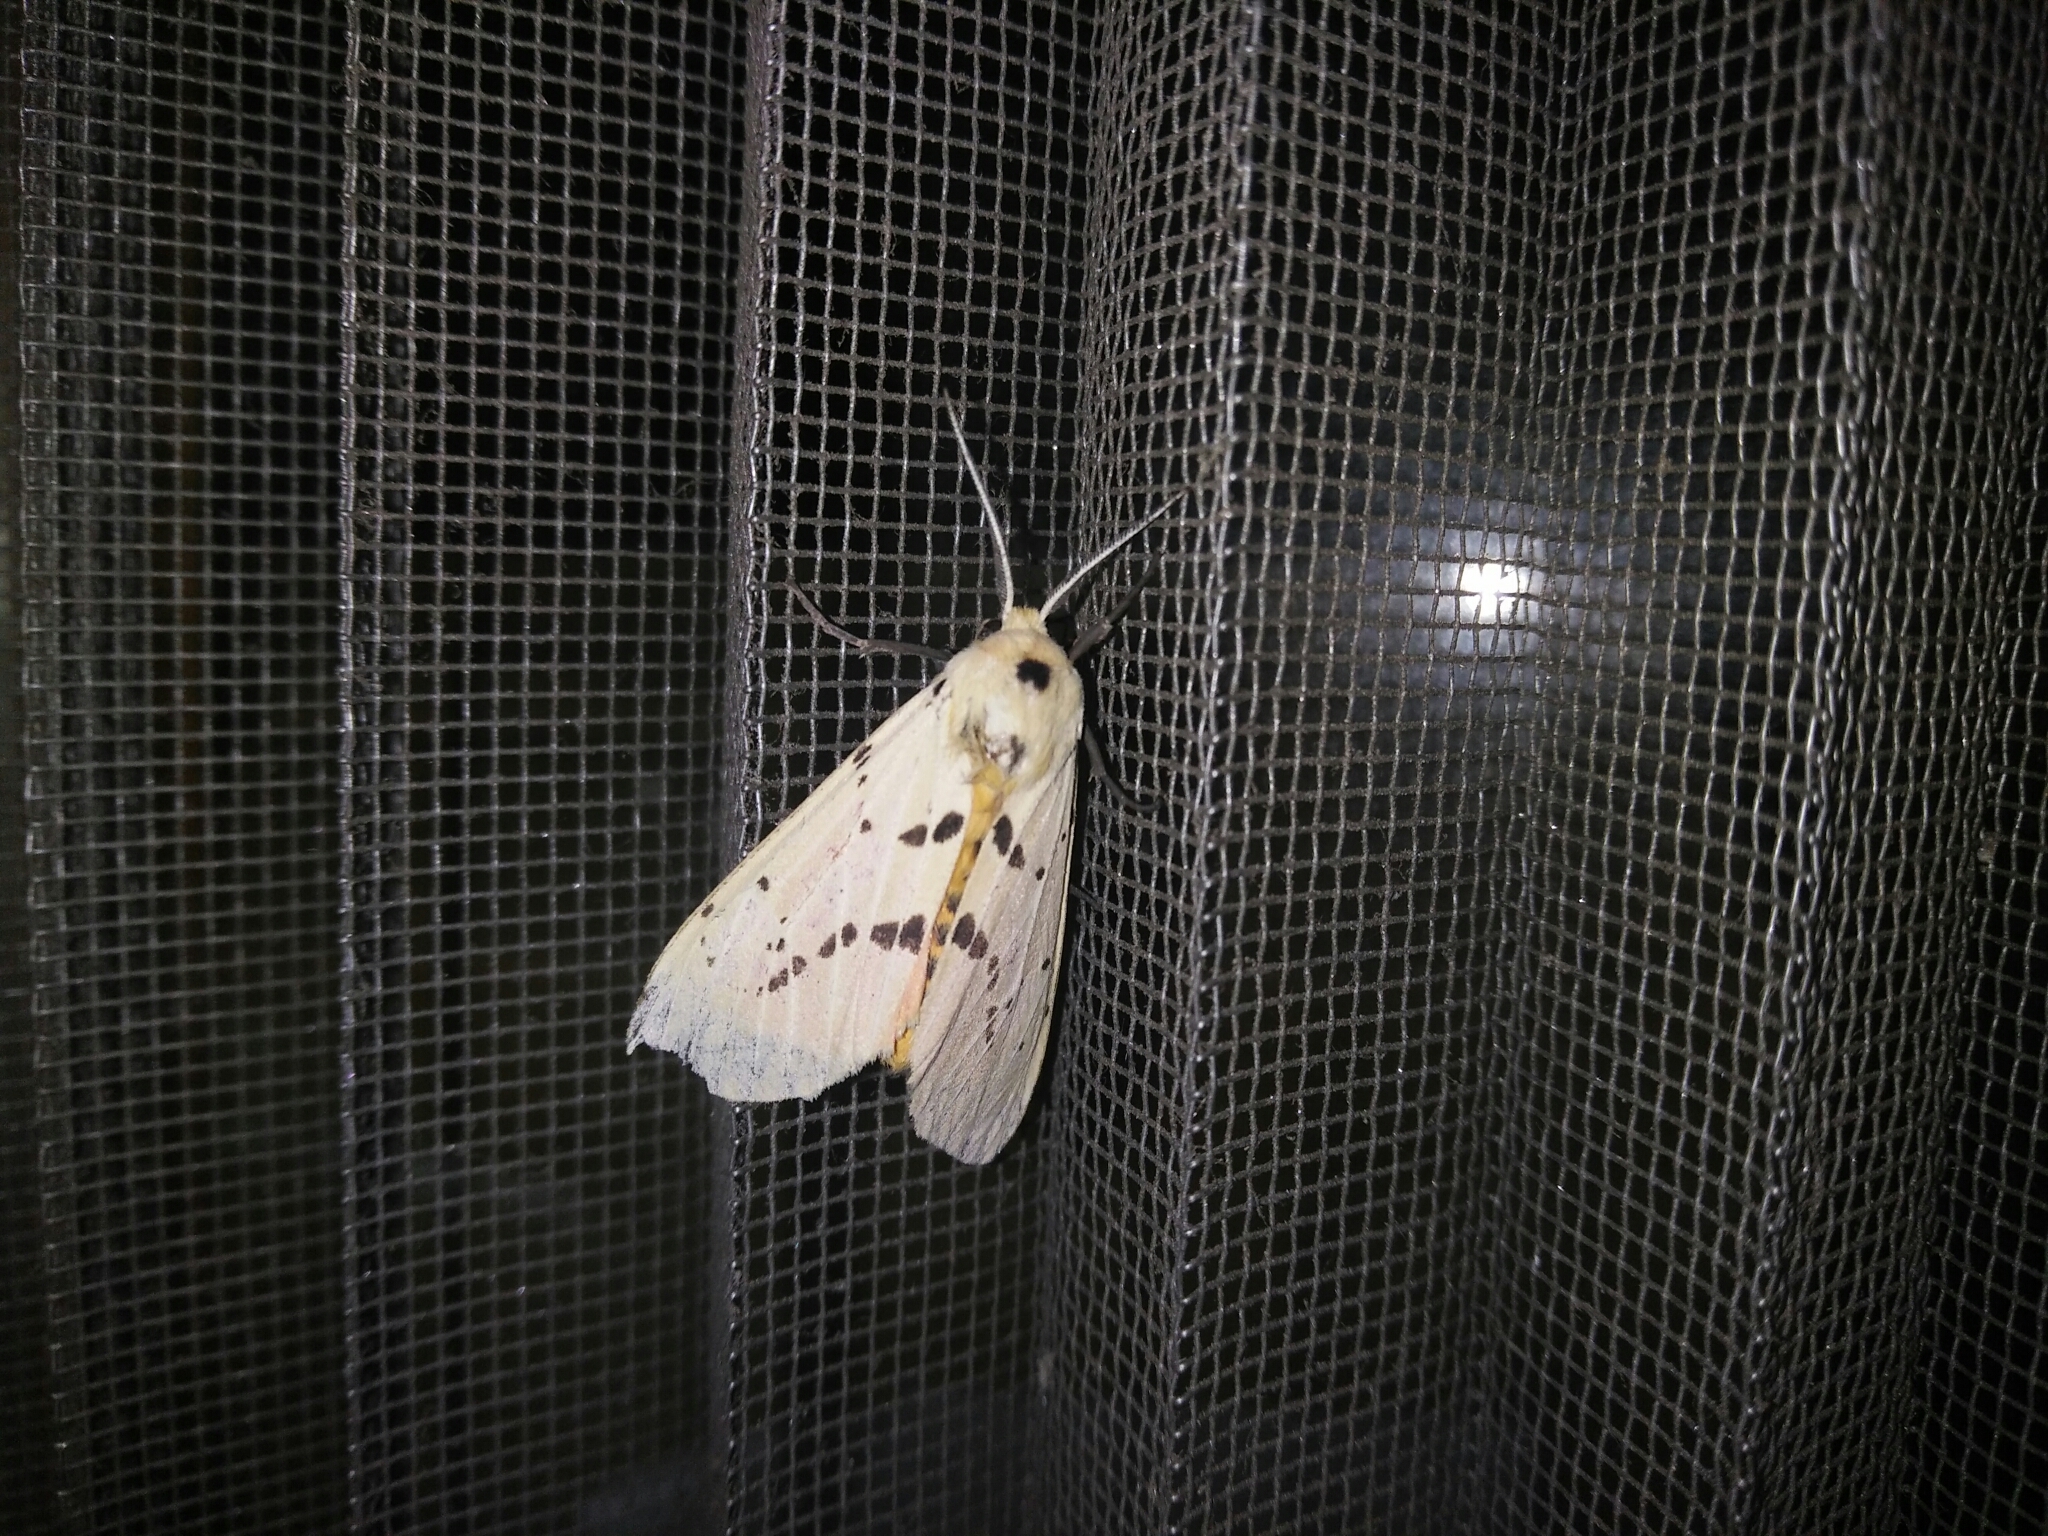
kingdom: Animalia
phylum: Arthropoda
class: Insecta
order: Lepidoptera
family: Erebidae
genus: Spilarctia
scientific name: Spilarctia postrubida
